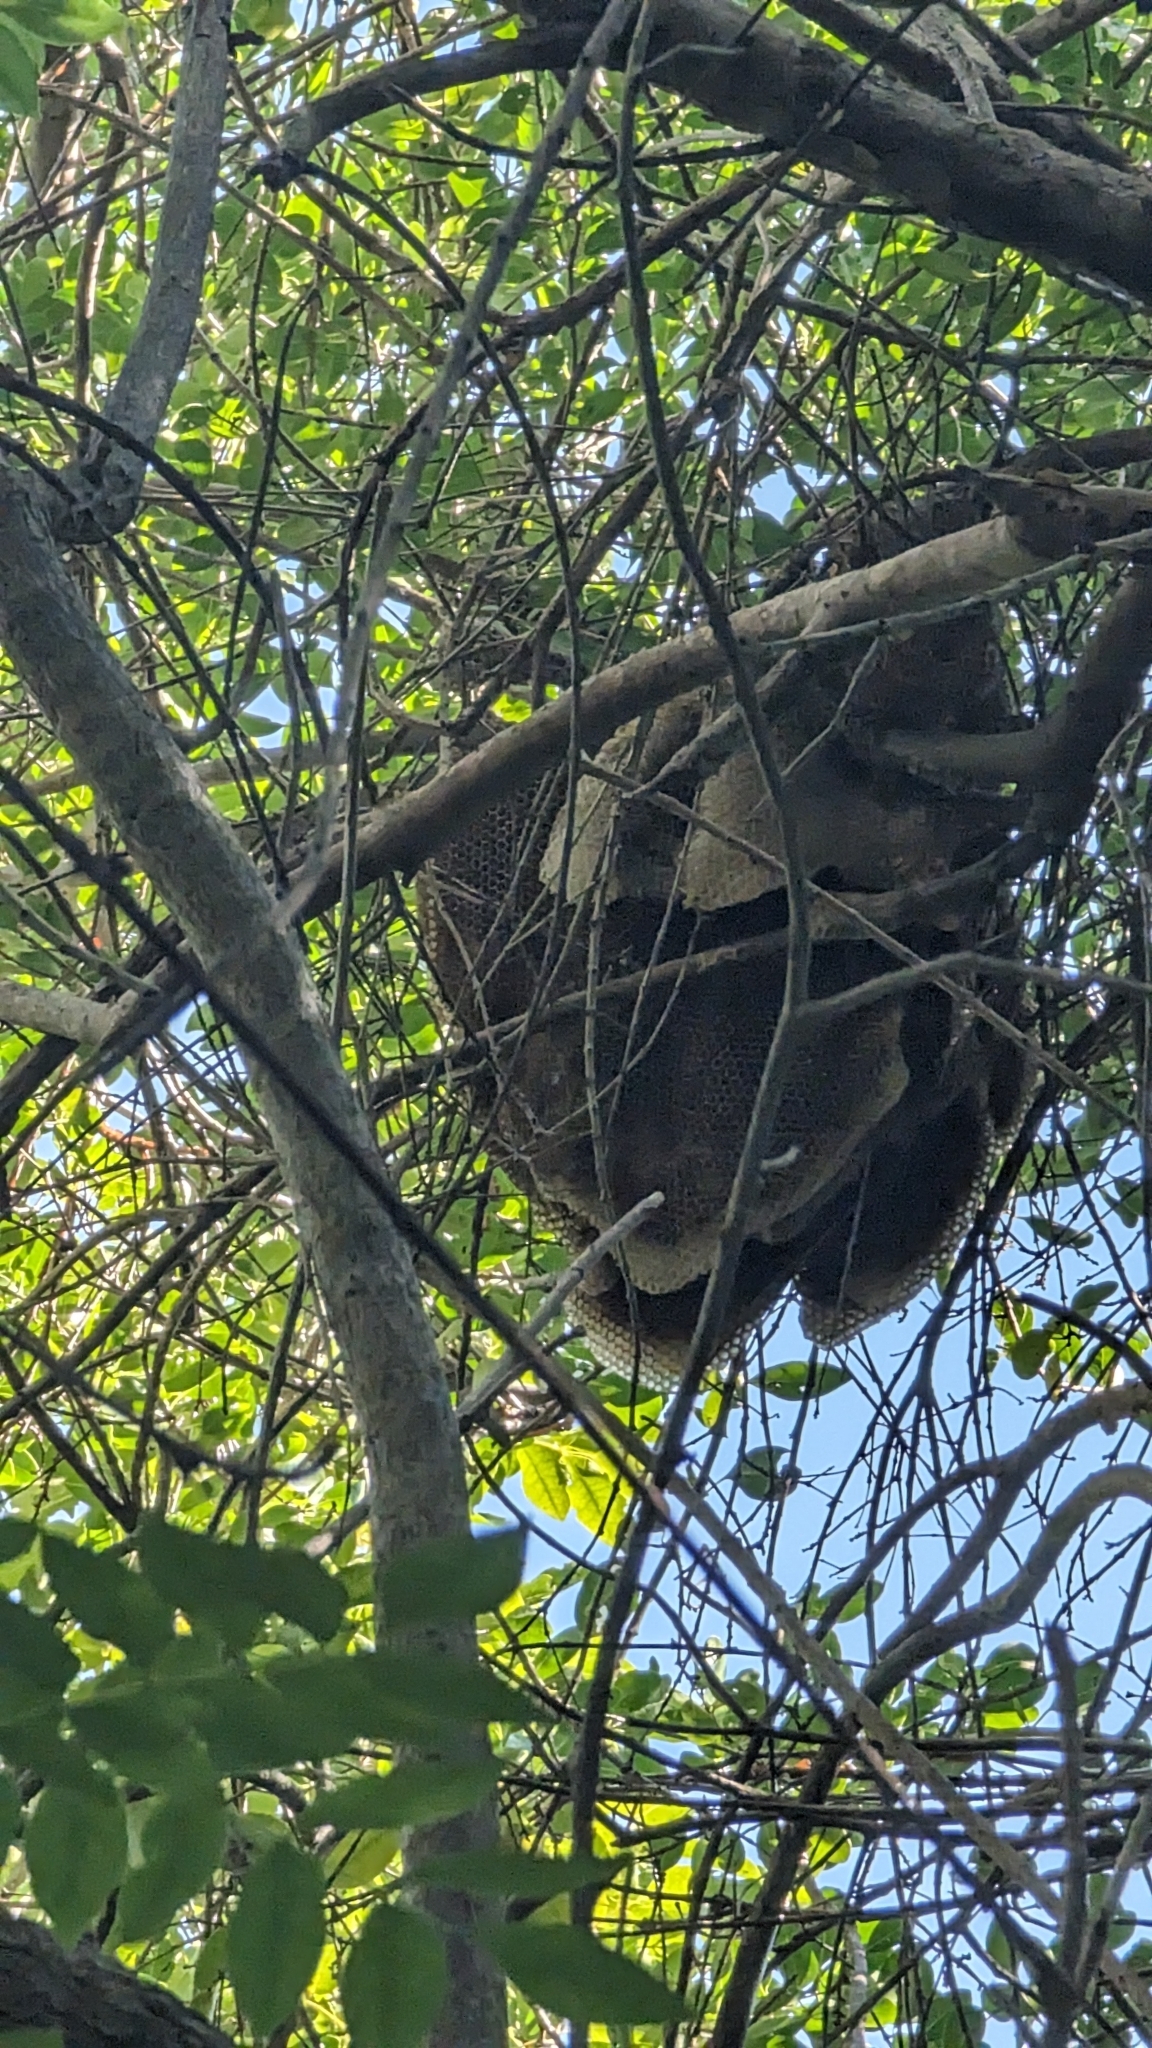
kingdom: Animalia
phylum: Arthropoda
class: Insecta
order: Hymenoptera
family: Apidae
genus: Apis
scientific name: Apis mellifera
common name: Honey bee
